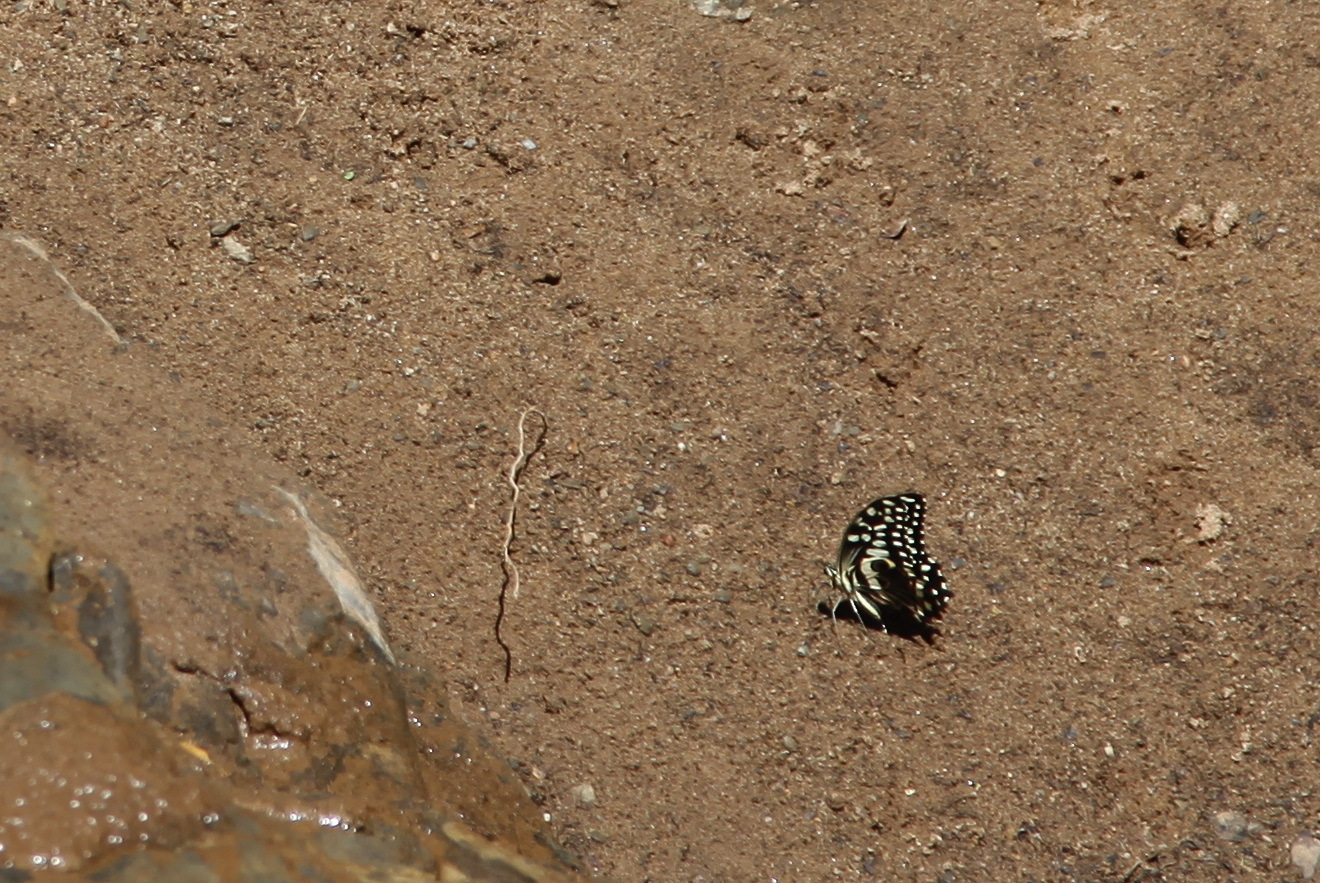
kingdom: Animalia
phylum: Arthropoda
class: Insecta
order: Lepidoptera
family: Papilionidae
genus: Papilio
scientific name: Papilio demodocus
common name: Christmas butterfly
